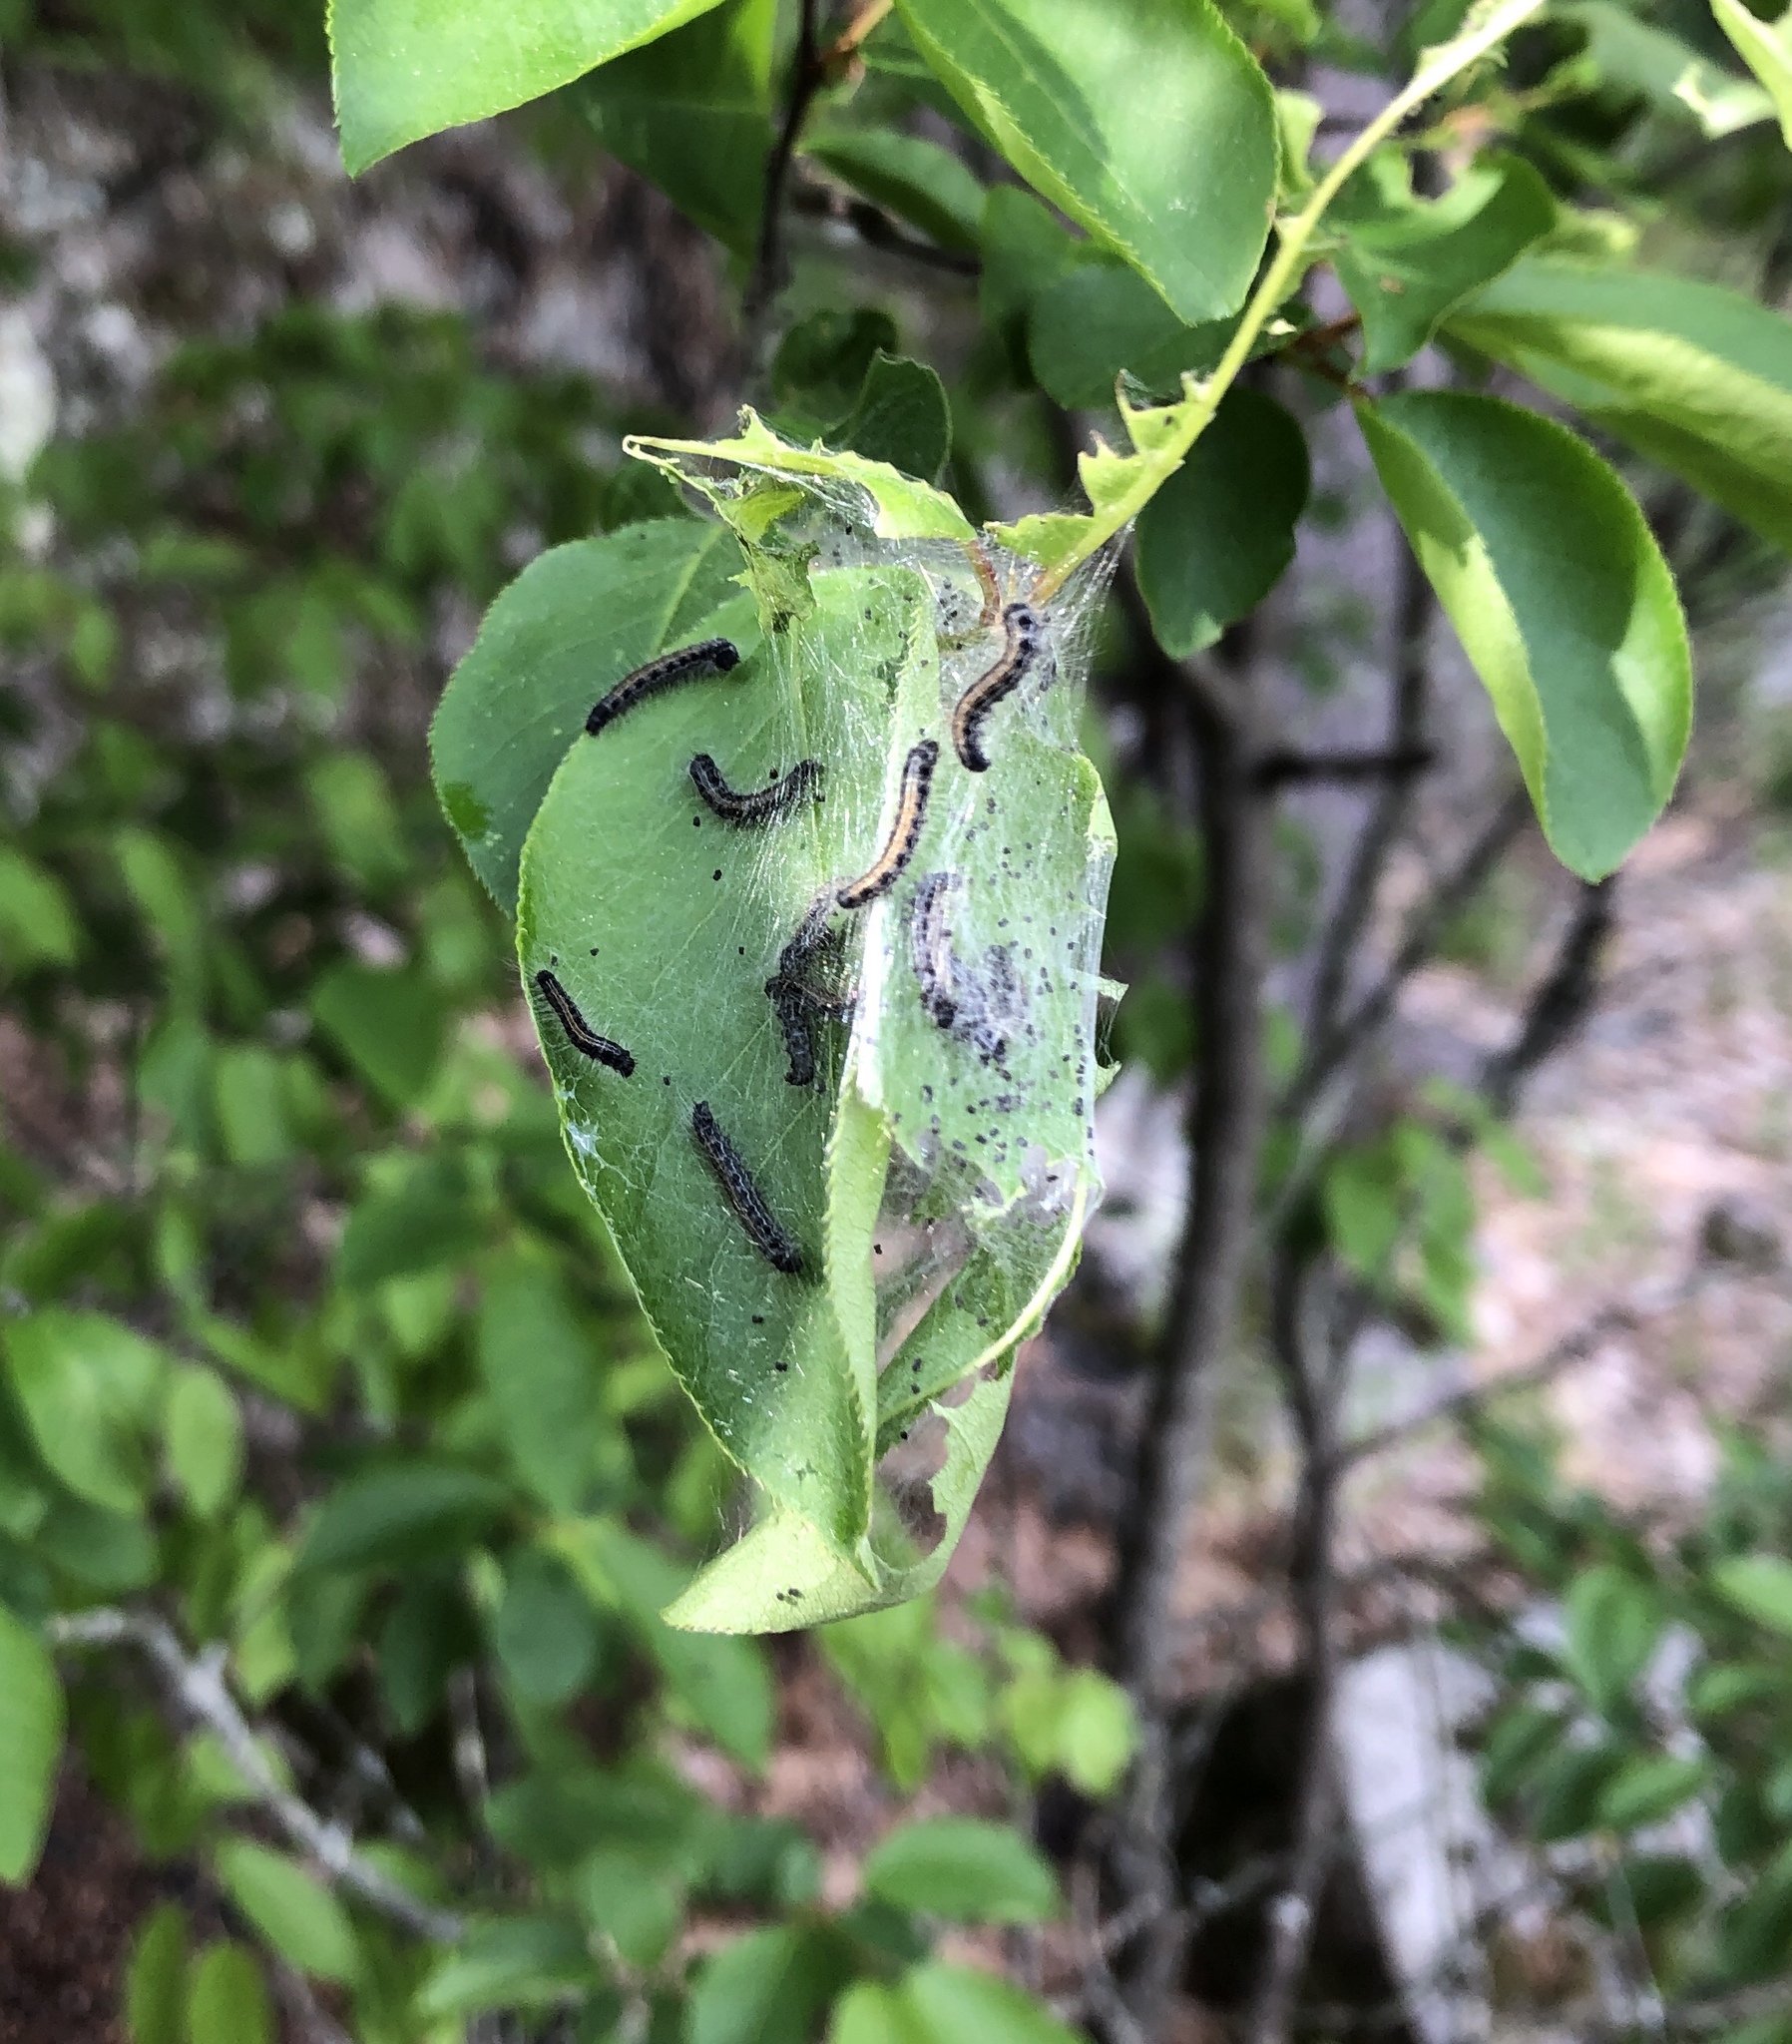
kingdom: Animalia
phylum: Arthropoda
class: Insecta
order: Lepidoptera
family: Lasiocampidae
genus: Malacosoma
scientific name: Malacosoma americana
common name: Eastern tent caterpillar moth
